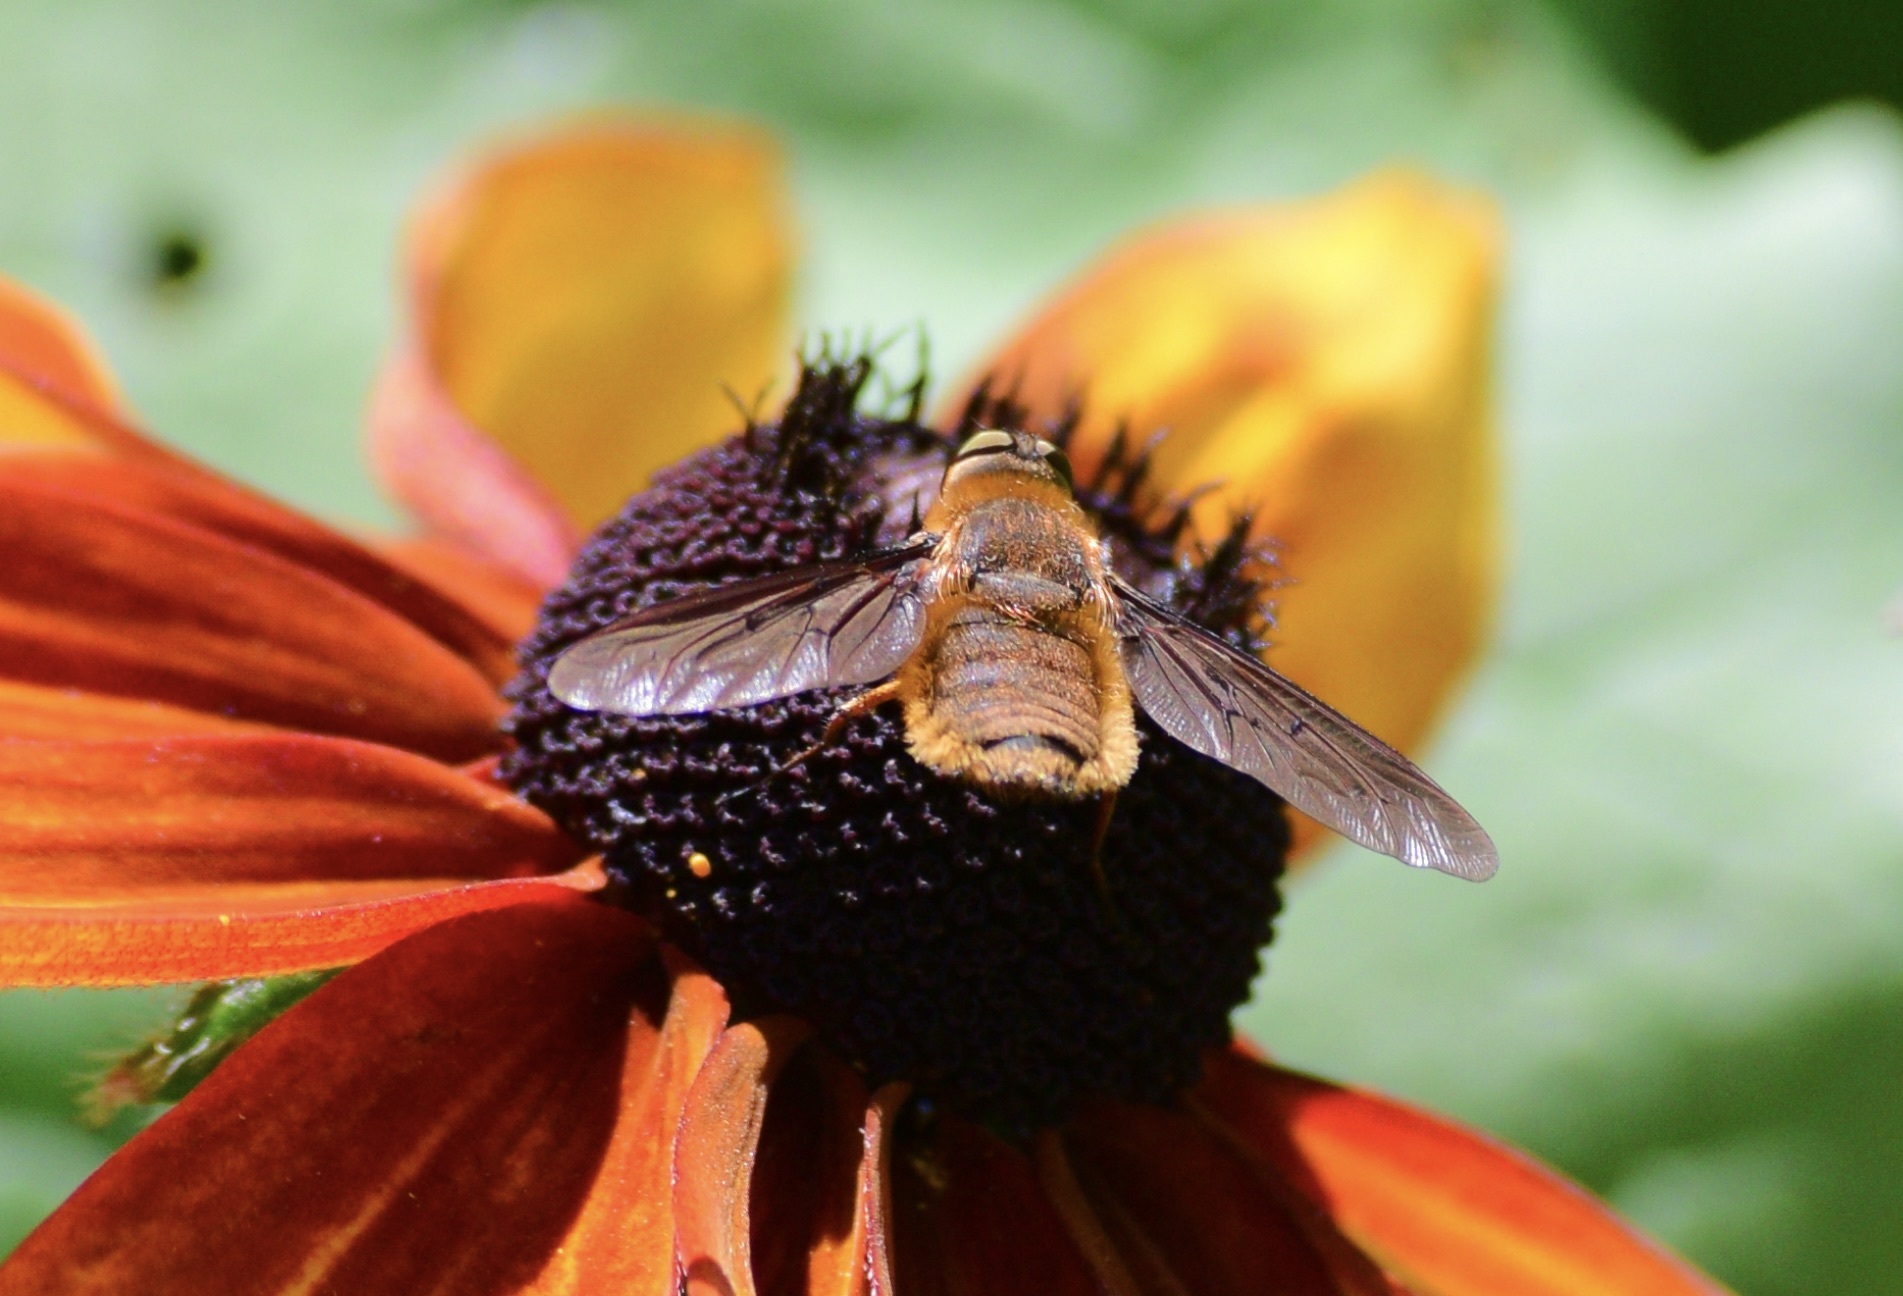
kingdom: Animalia
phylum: Arthropoda
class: Insecta
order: Diptera
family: Bombyliidae
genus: Poecilanthrax
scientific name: Poecilanthrax tegminipennis
